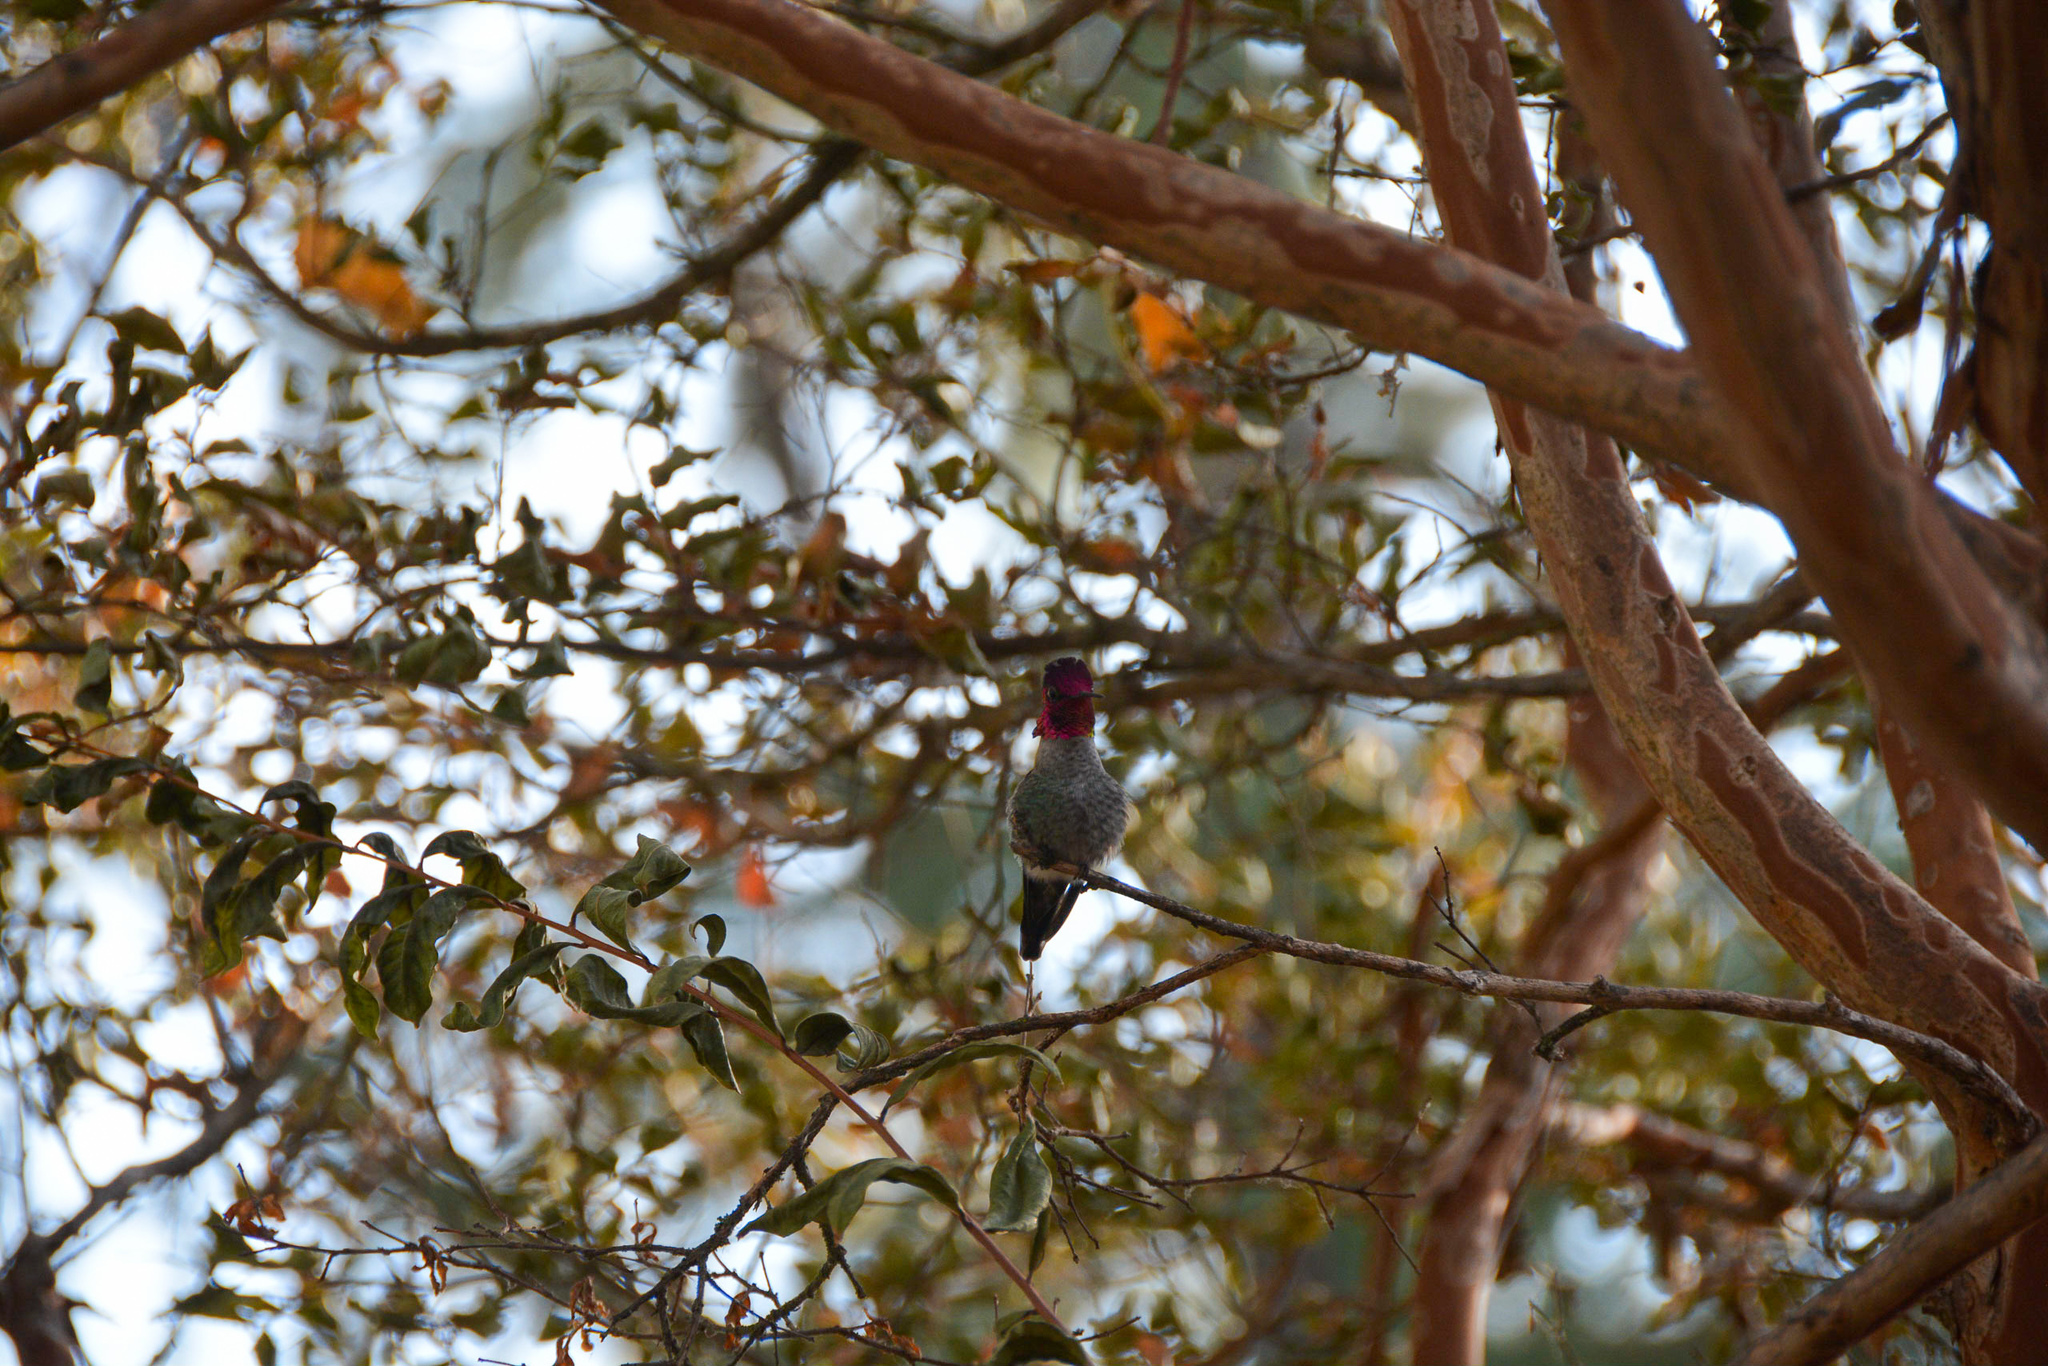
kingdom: Animalia
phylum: Chordata
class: Aves
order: Apodiformes
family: Trochilidae
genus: Calypte
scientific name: Calypte anna
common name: Anna's hummingbird
